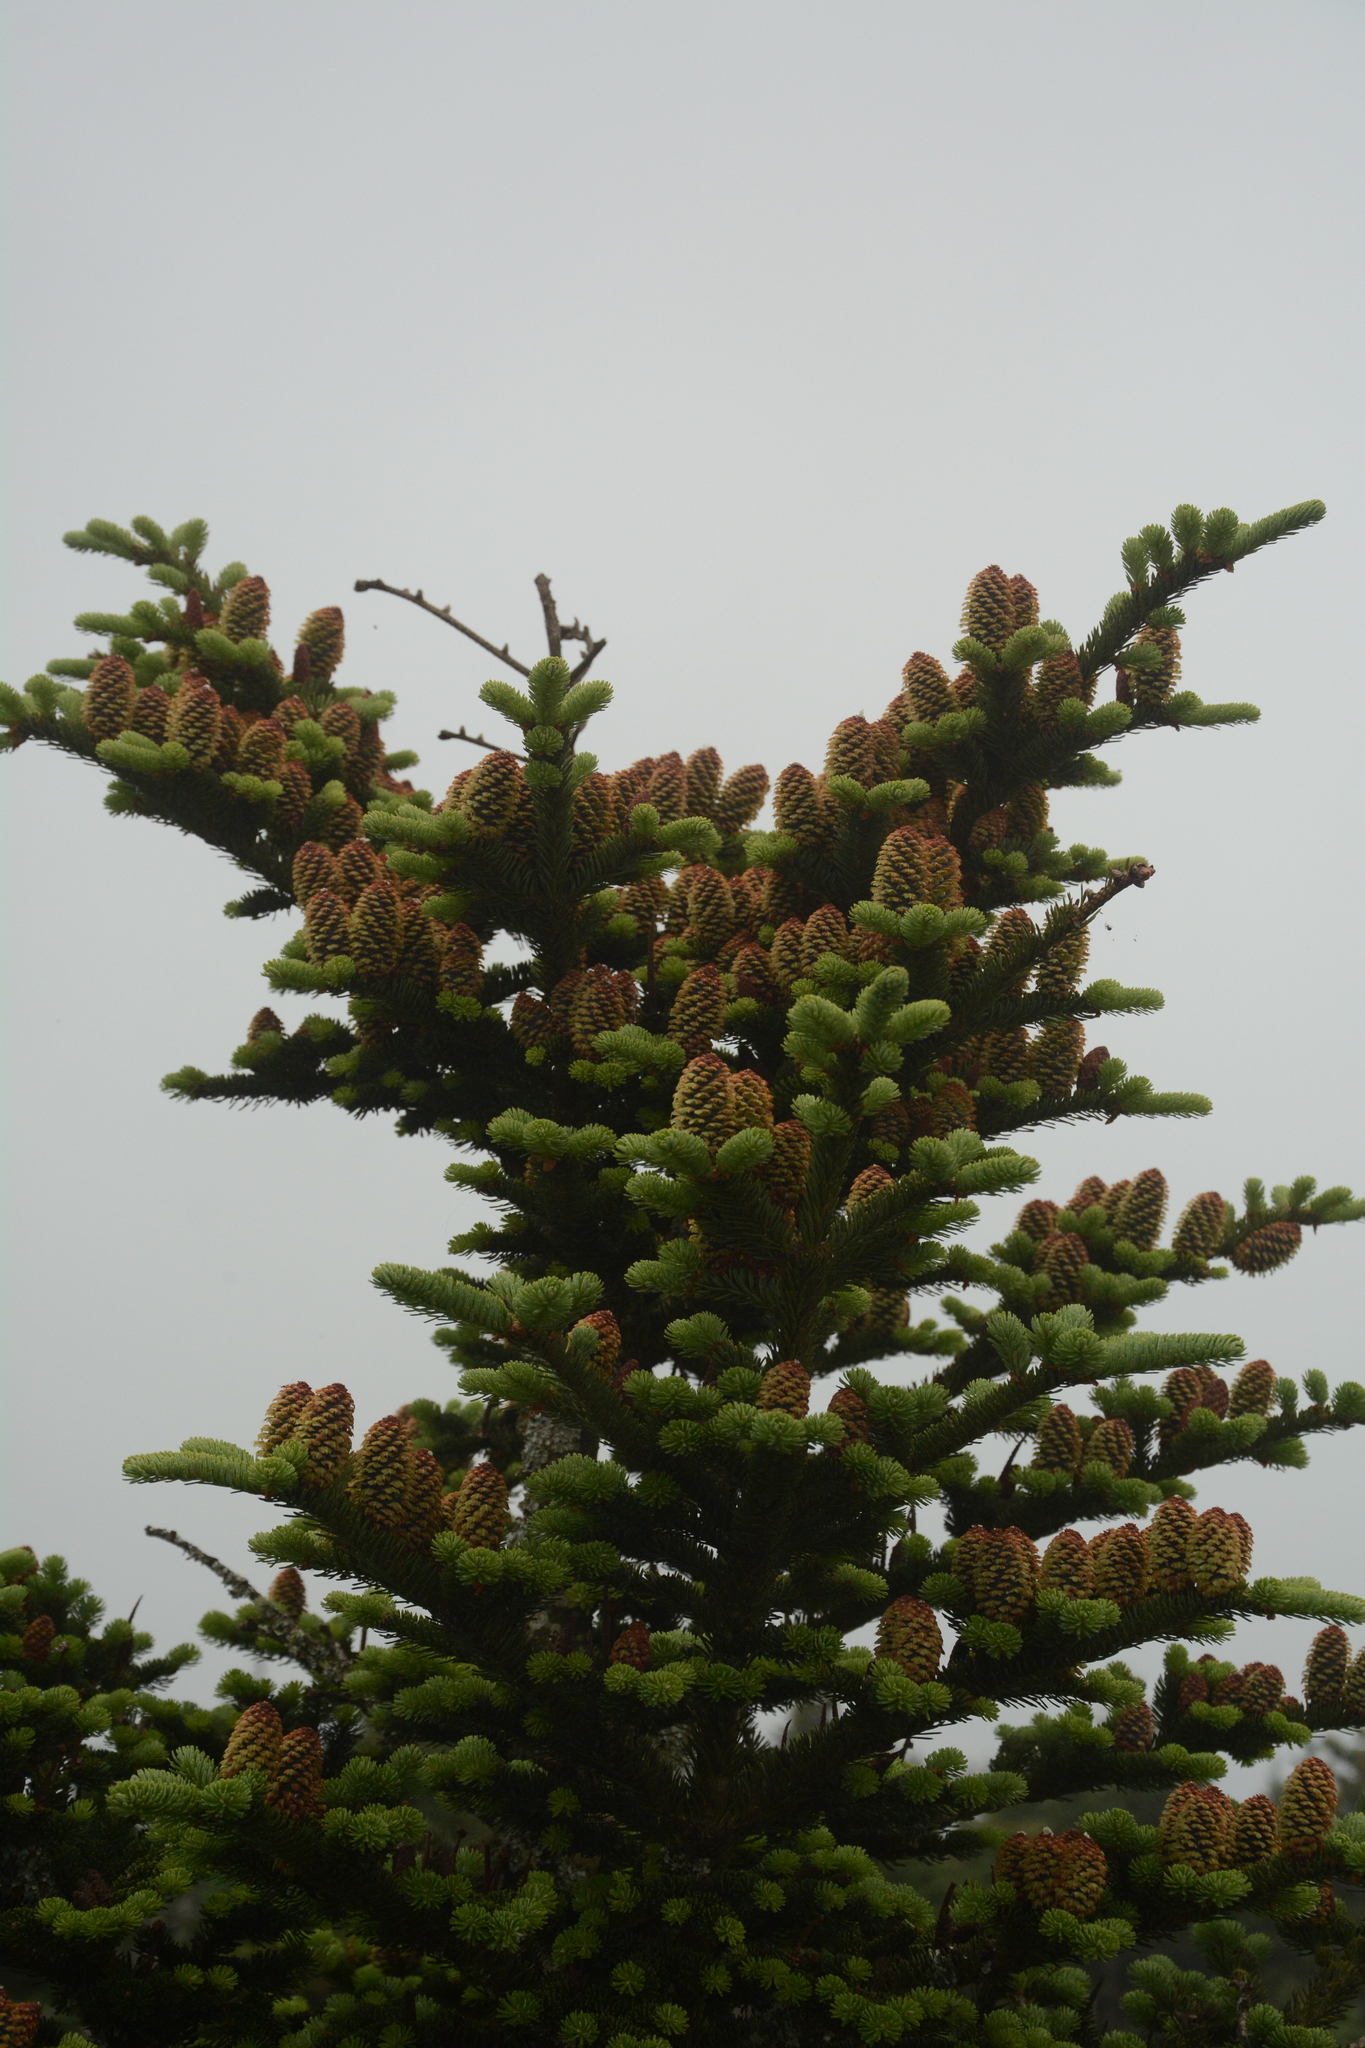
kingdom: Plantae
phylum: Tracheophyta
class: Pinopsida
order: Pinales
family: Pinaceae
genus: Abies
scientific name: Abies fraseri
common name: Fraser fir
